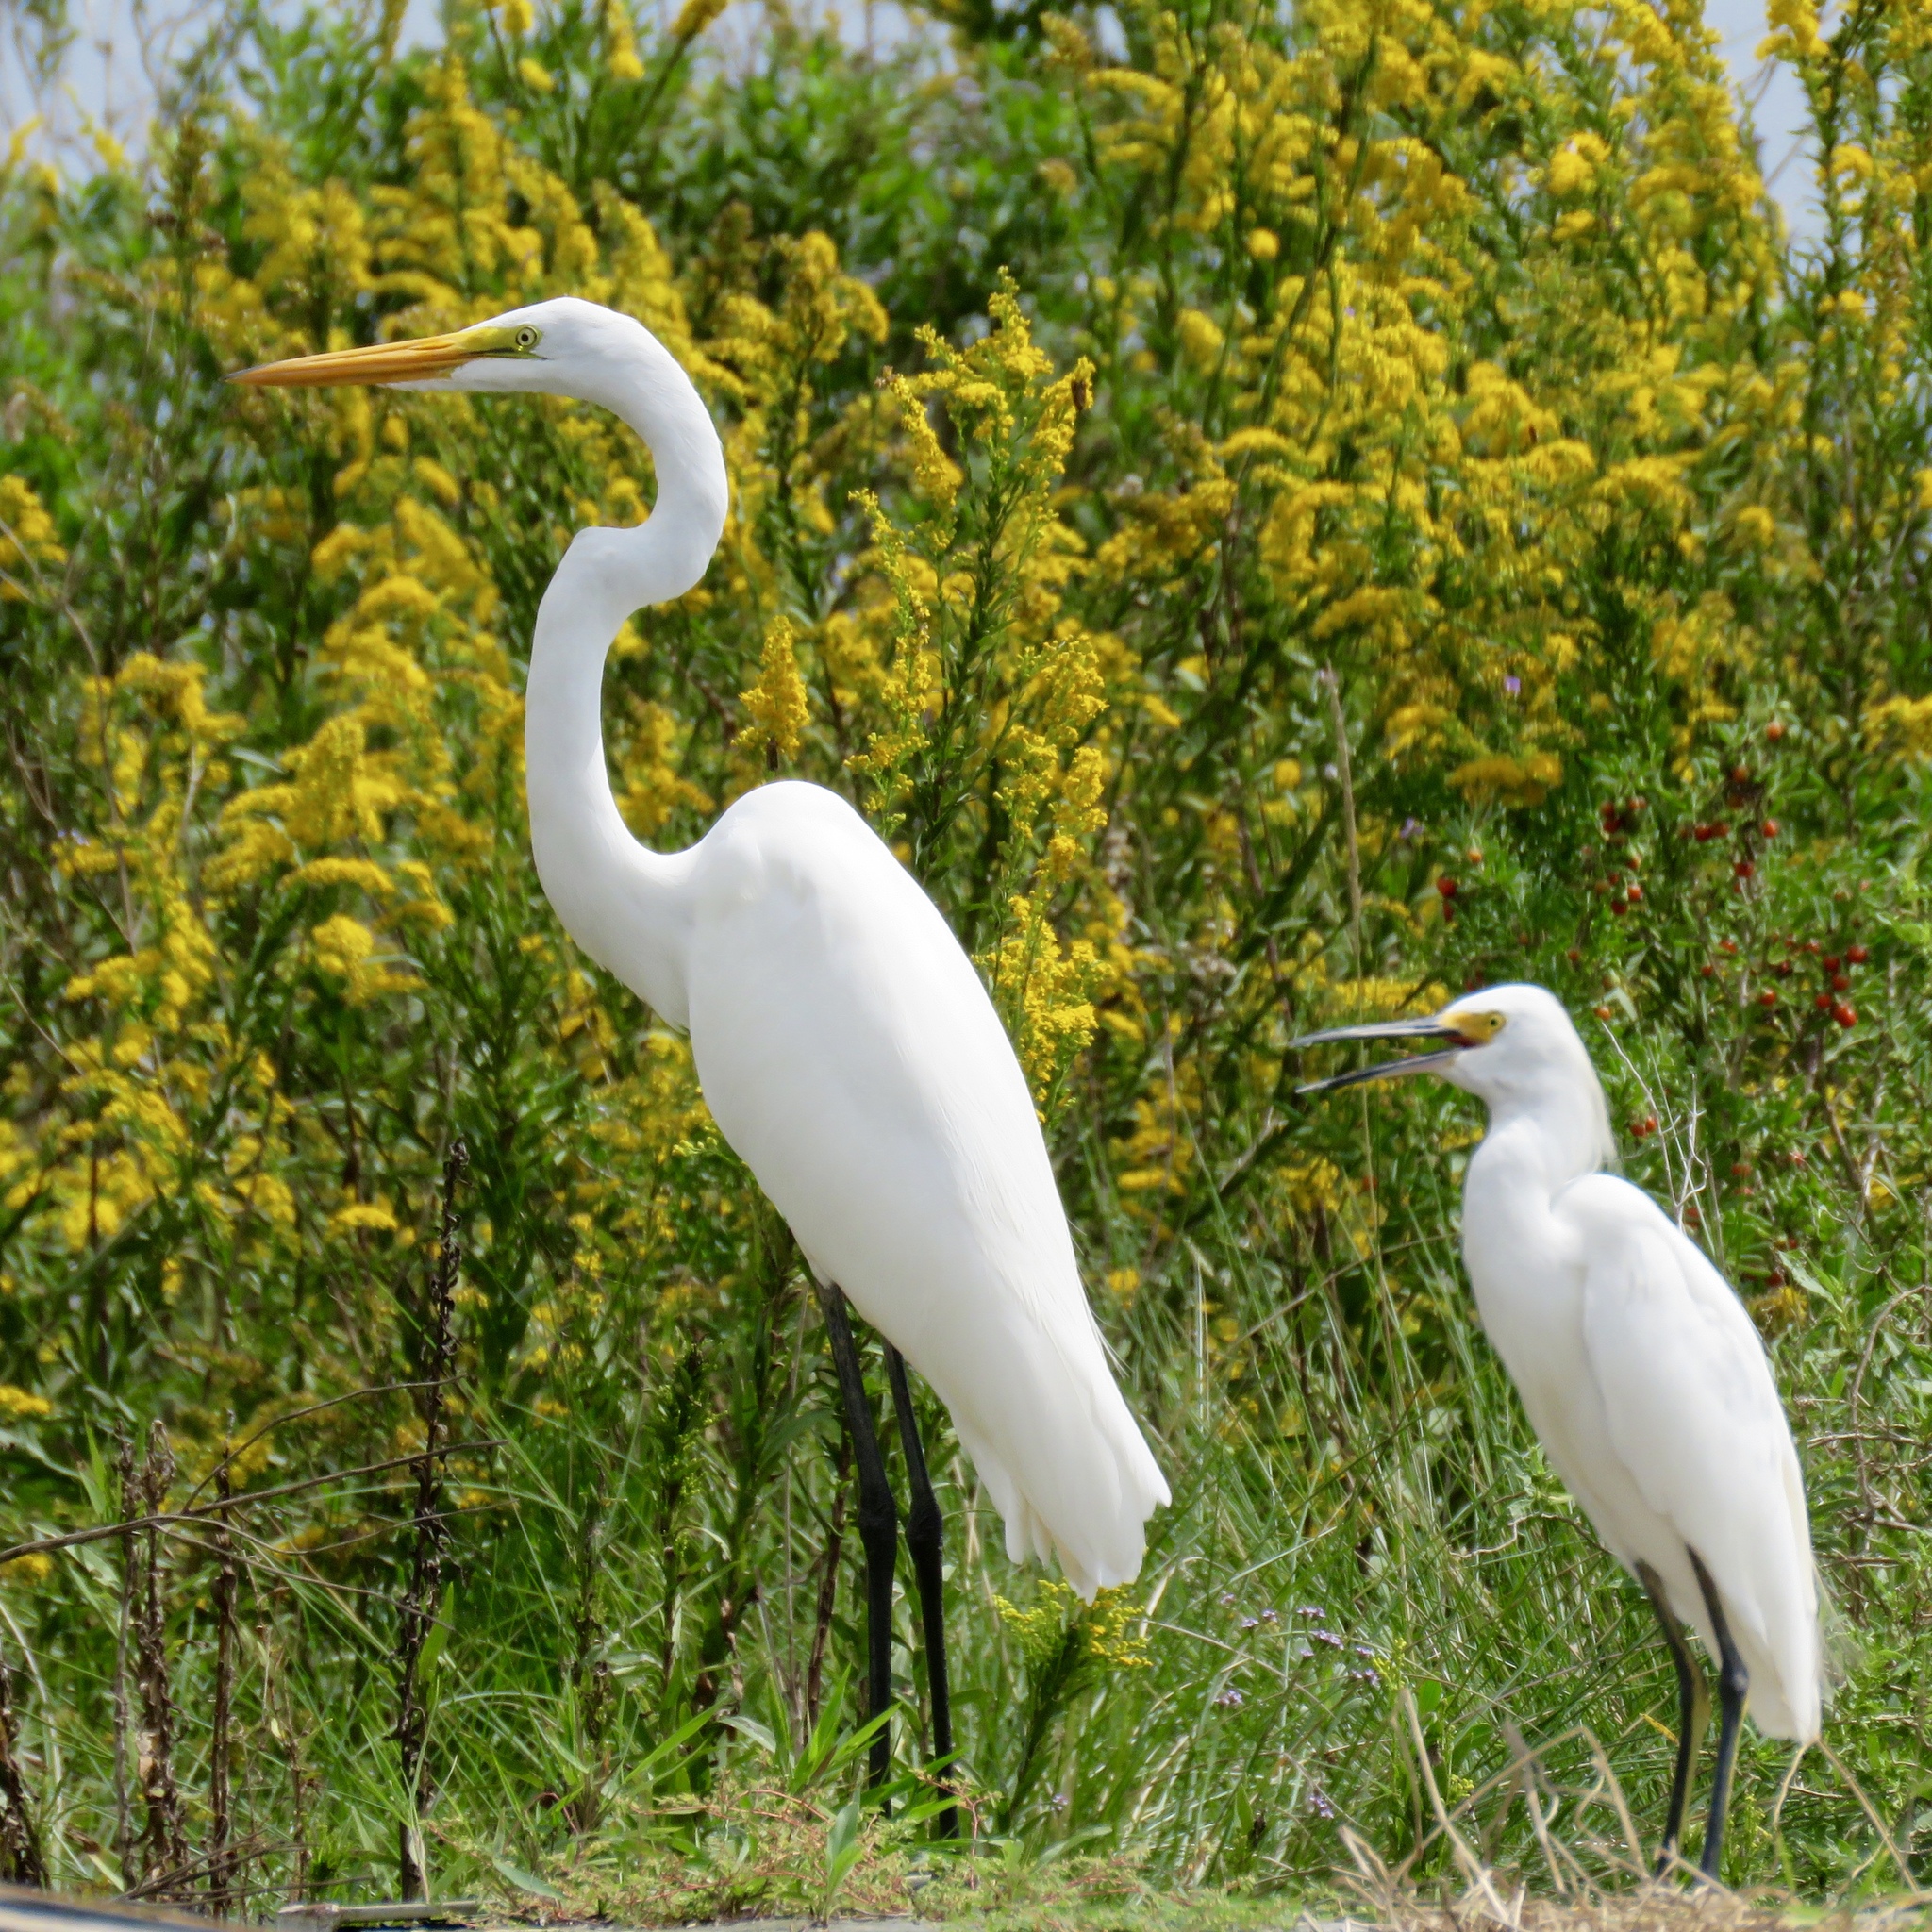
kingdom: Animalia
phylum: Chordata
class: Aves
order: Pelecaniformes
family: Ardeidae
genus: Ardea
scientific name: Ardea alba
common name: Great egret
